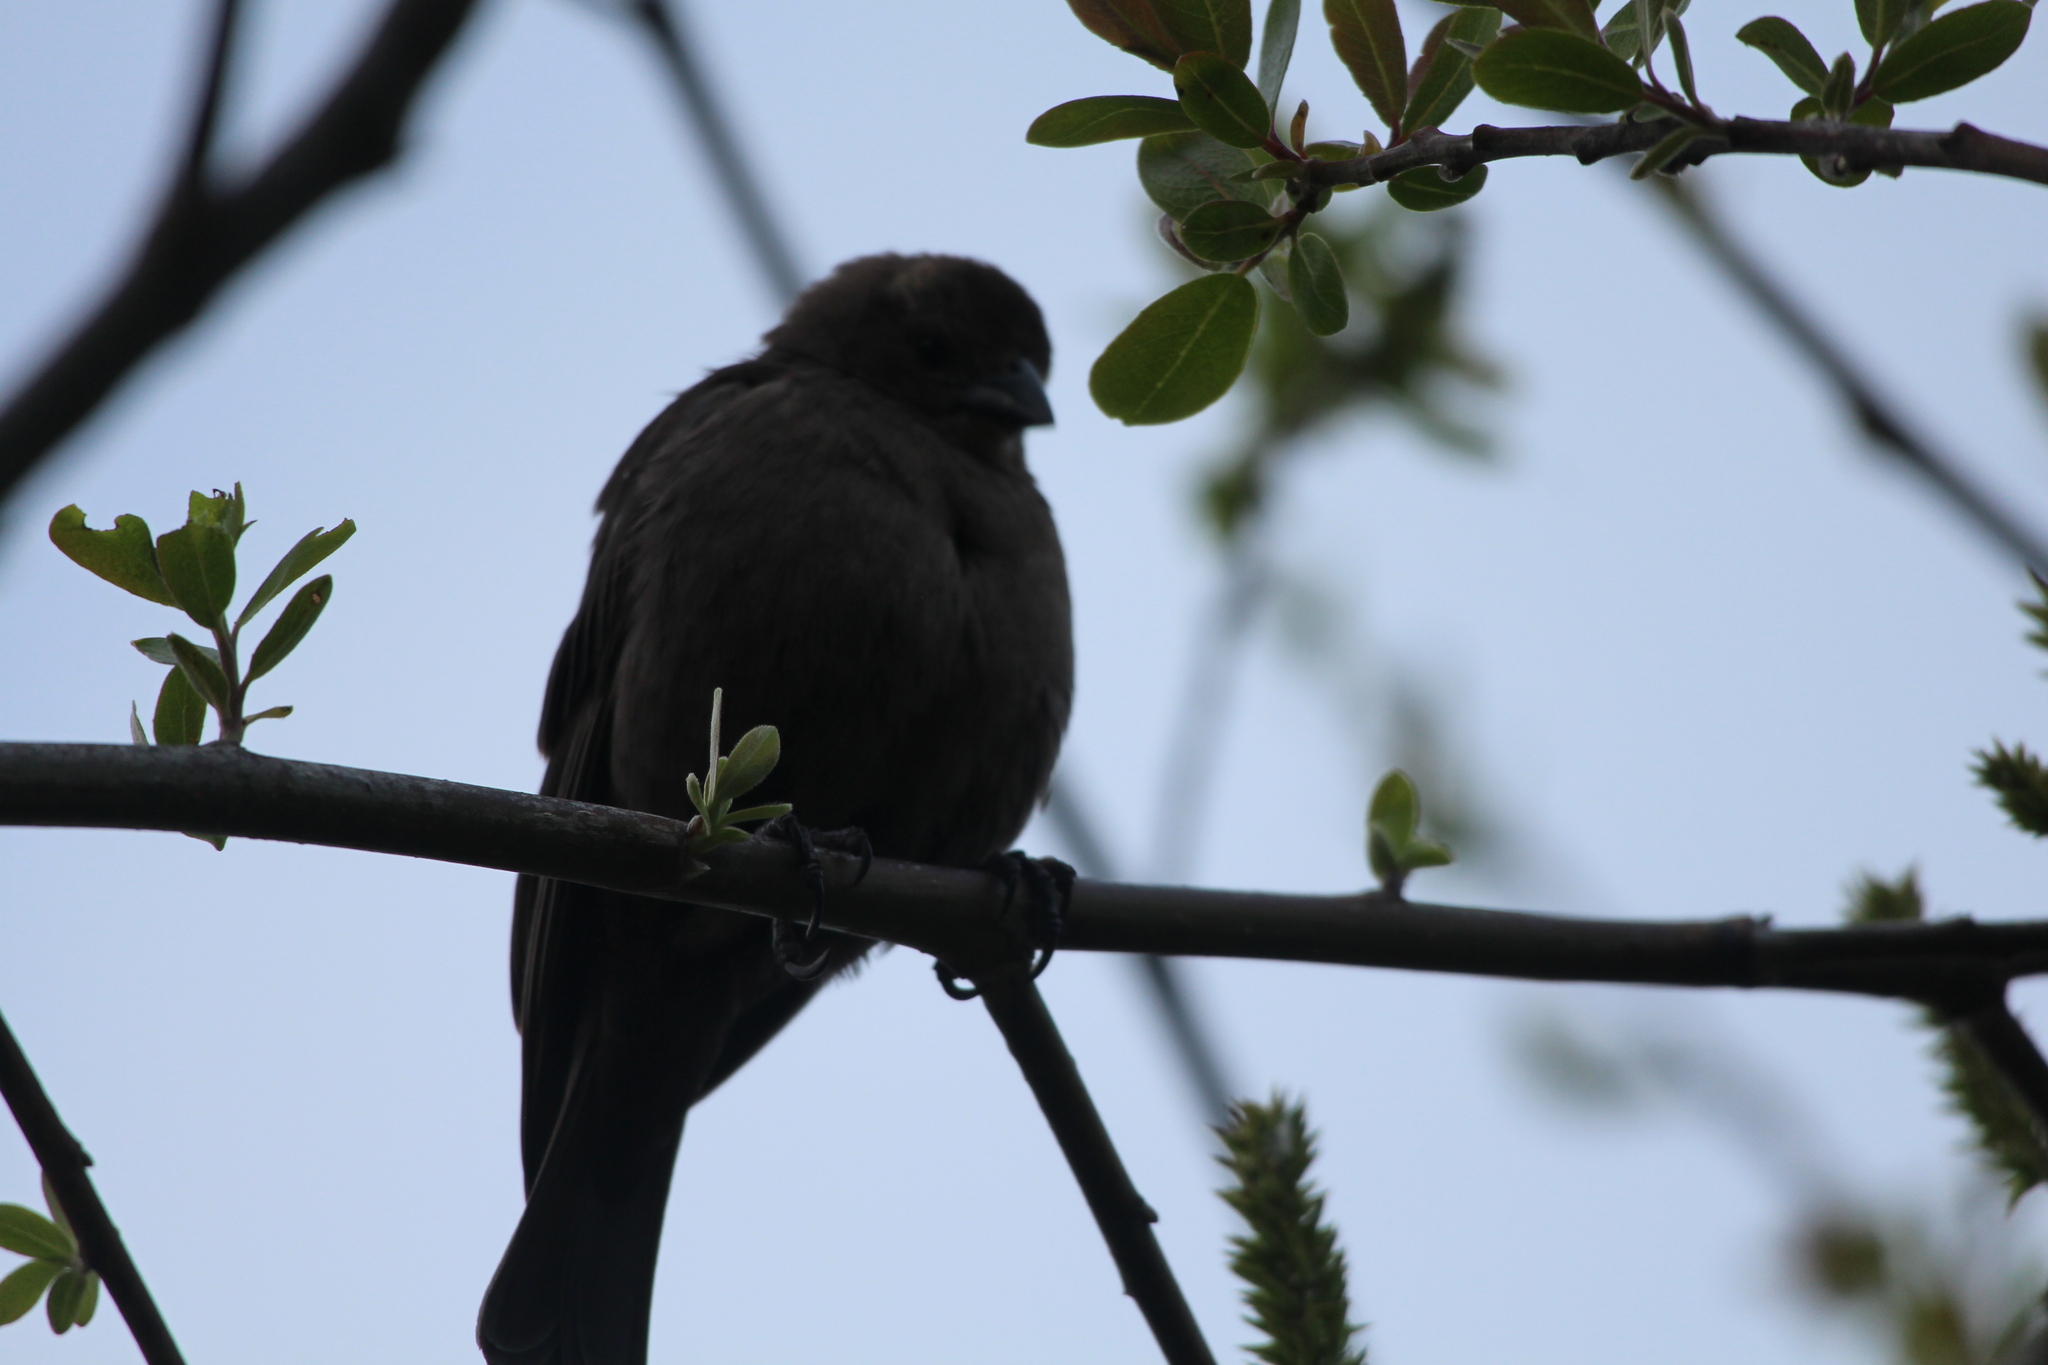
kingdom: Animalia
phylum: Chordata
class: Aves
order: Passeriformes
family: Icteridae
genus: Molothrus
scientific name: Molothrus ater
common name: Brown-headed cowbird
